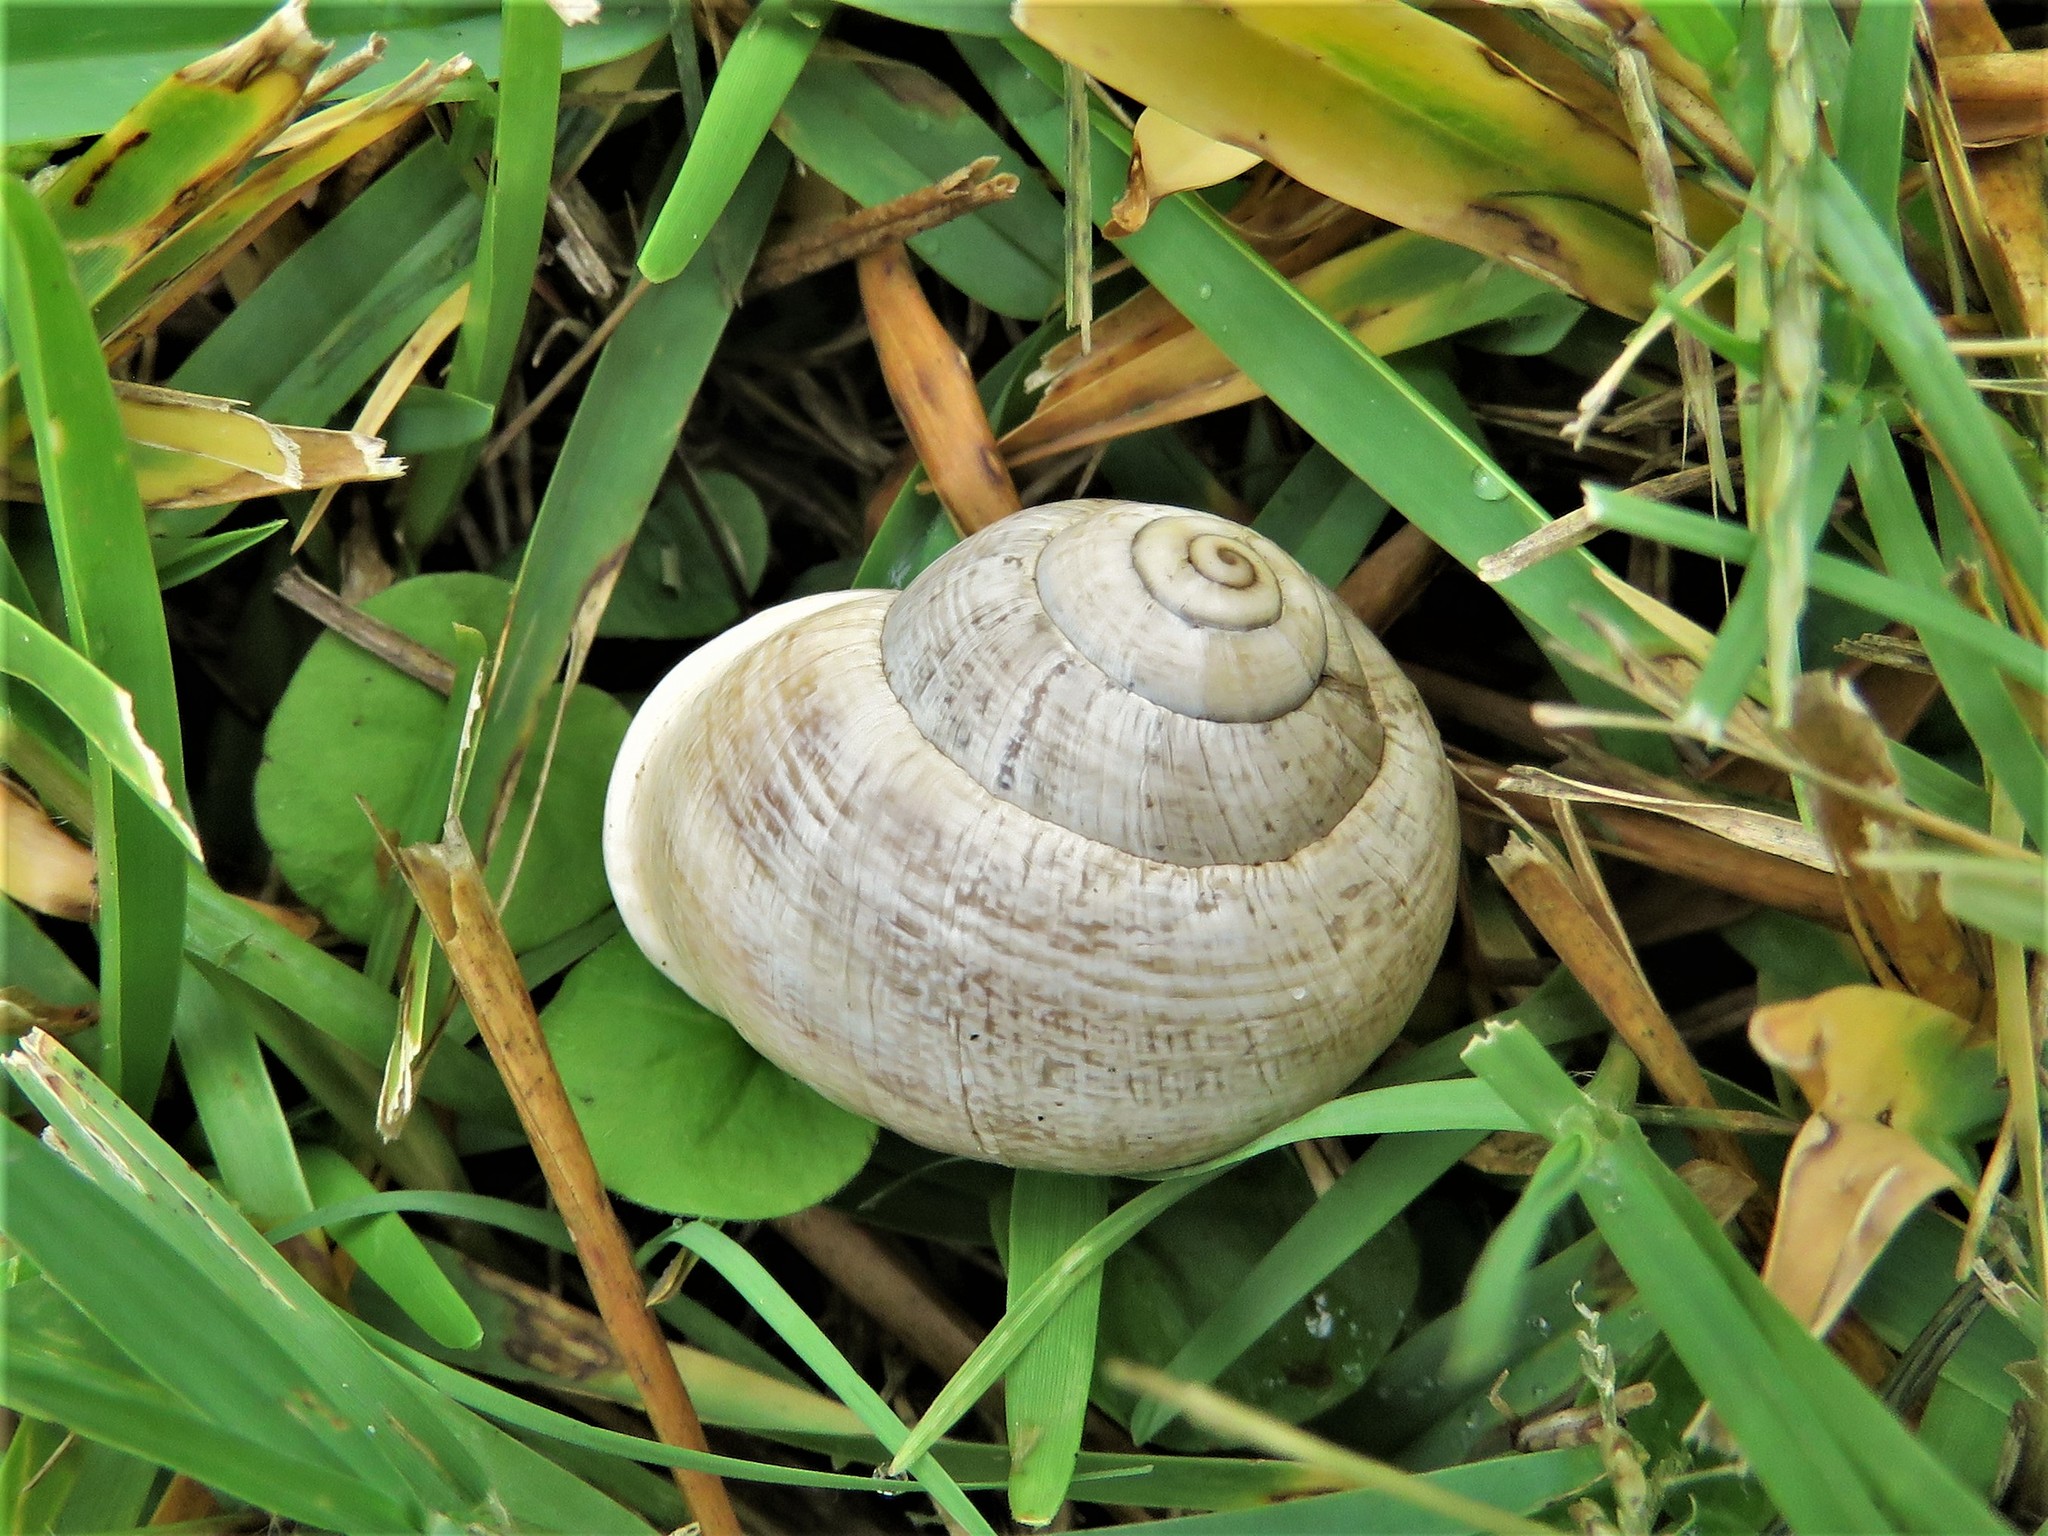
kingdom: Animalia
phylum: Mollusca
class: Gastropoda
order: Stylommatophora
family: Helicidae
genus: Otala
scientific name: Otala lactea
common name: Milk snail
